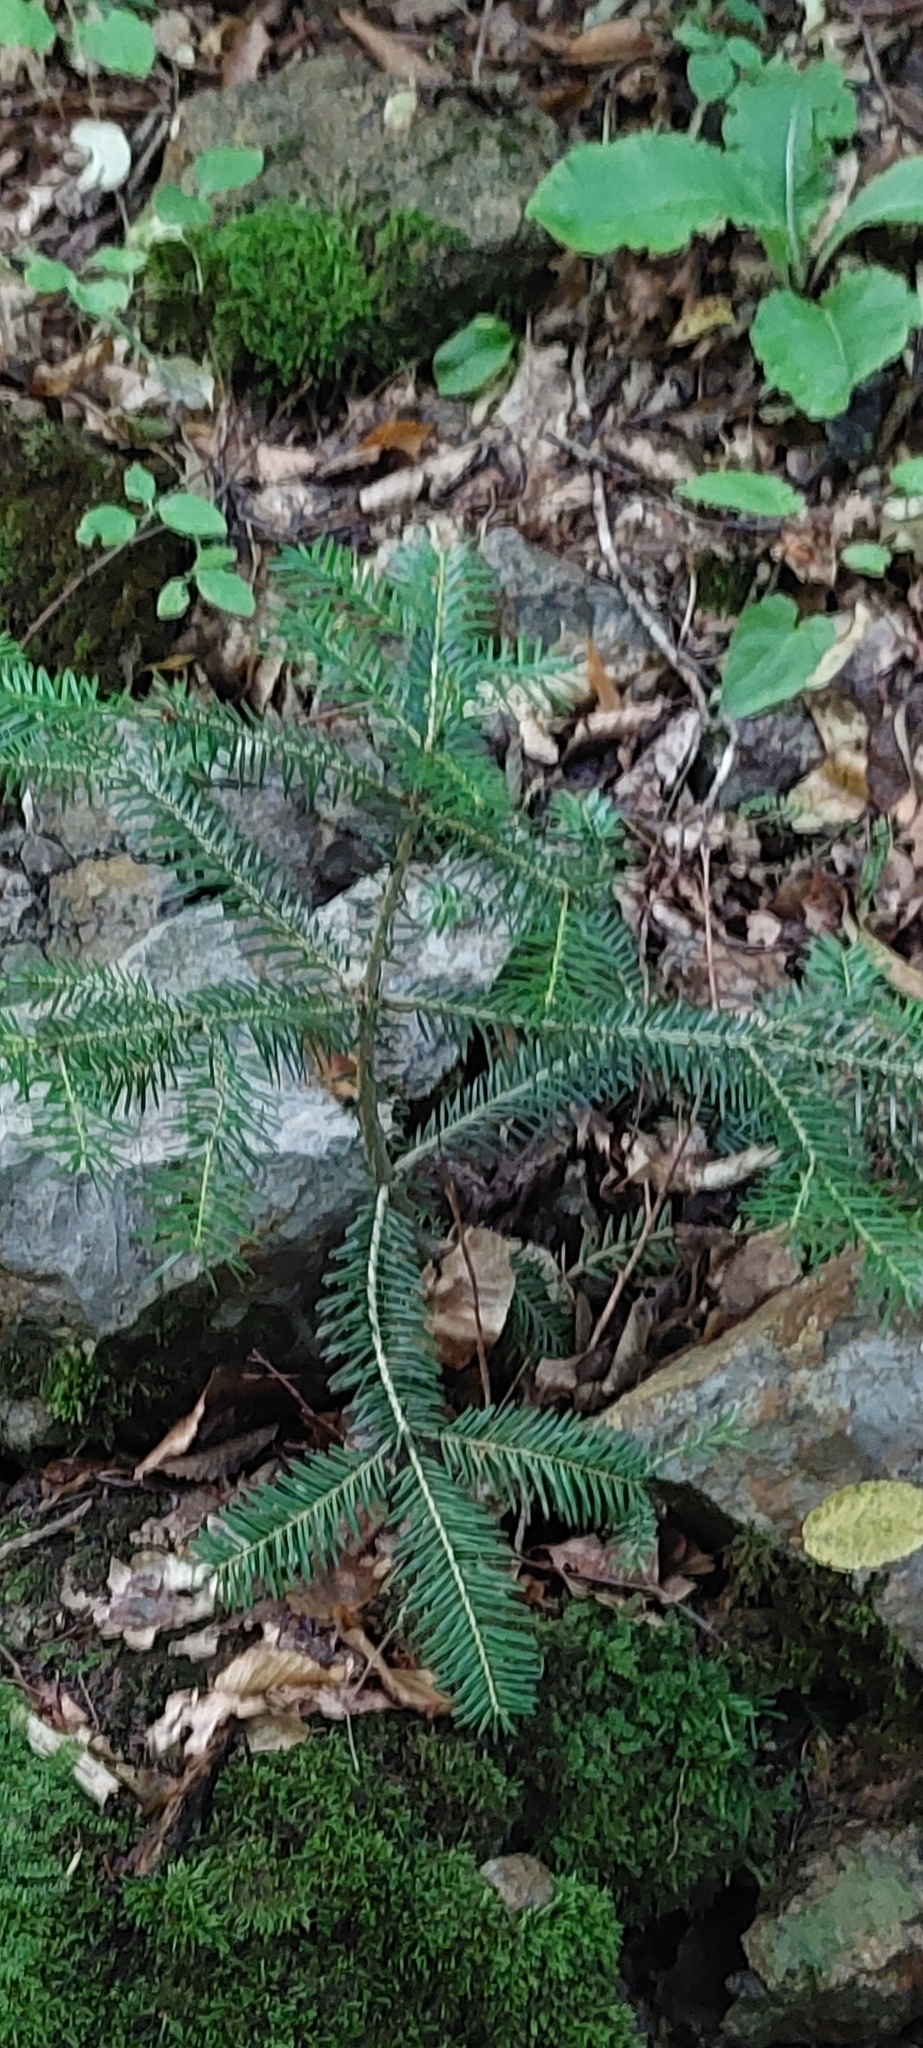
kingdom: Plantae
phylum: Tracheophyta
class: Pinopsida
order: Pinales
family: Pinaceae
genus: Abies
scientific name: Abies nordmanniana
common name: Caucasian fir
